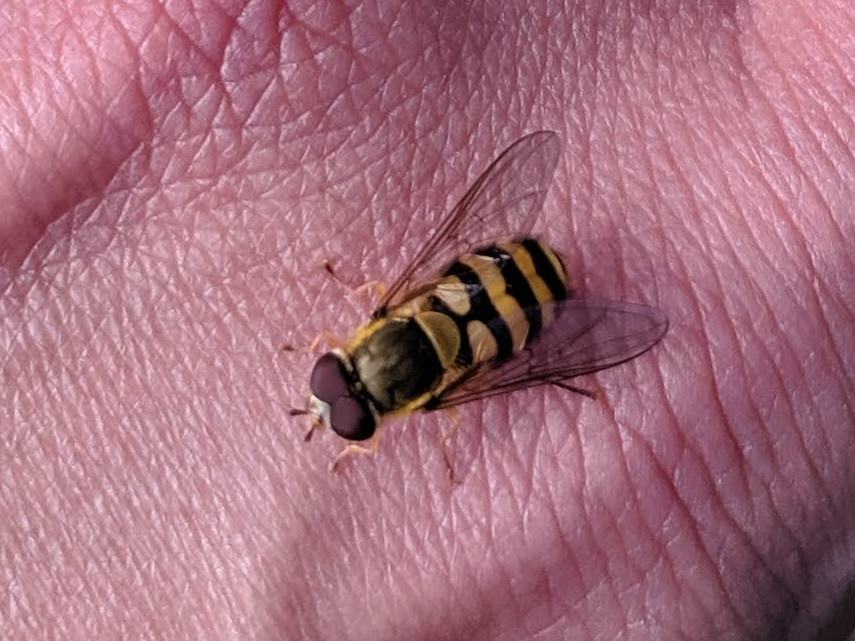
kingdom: Animalia
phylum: Arthropoda
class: Insecta
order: Diptera
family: Syrphidae
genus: Syrphus
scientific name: Syrphus
